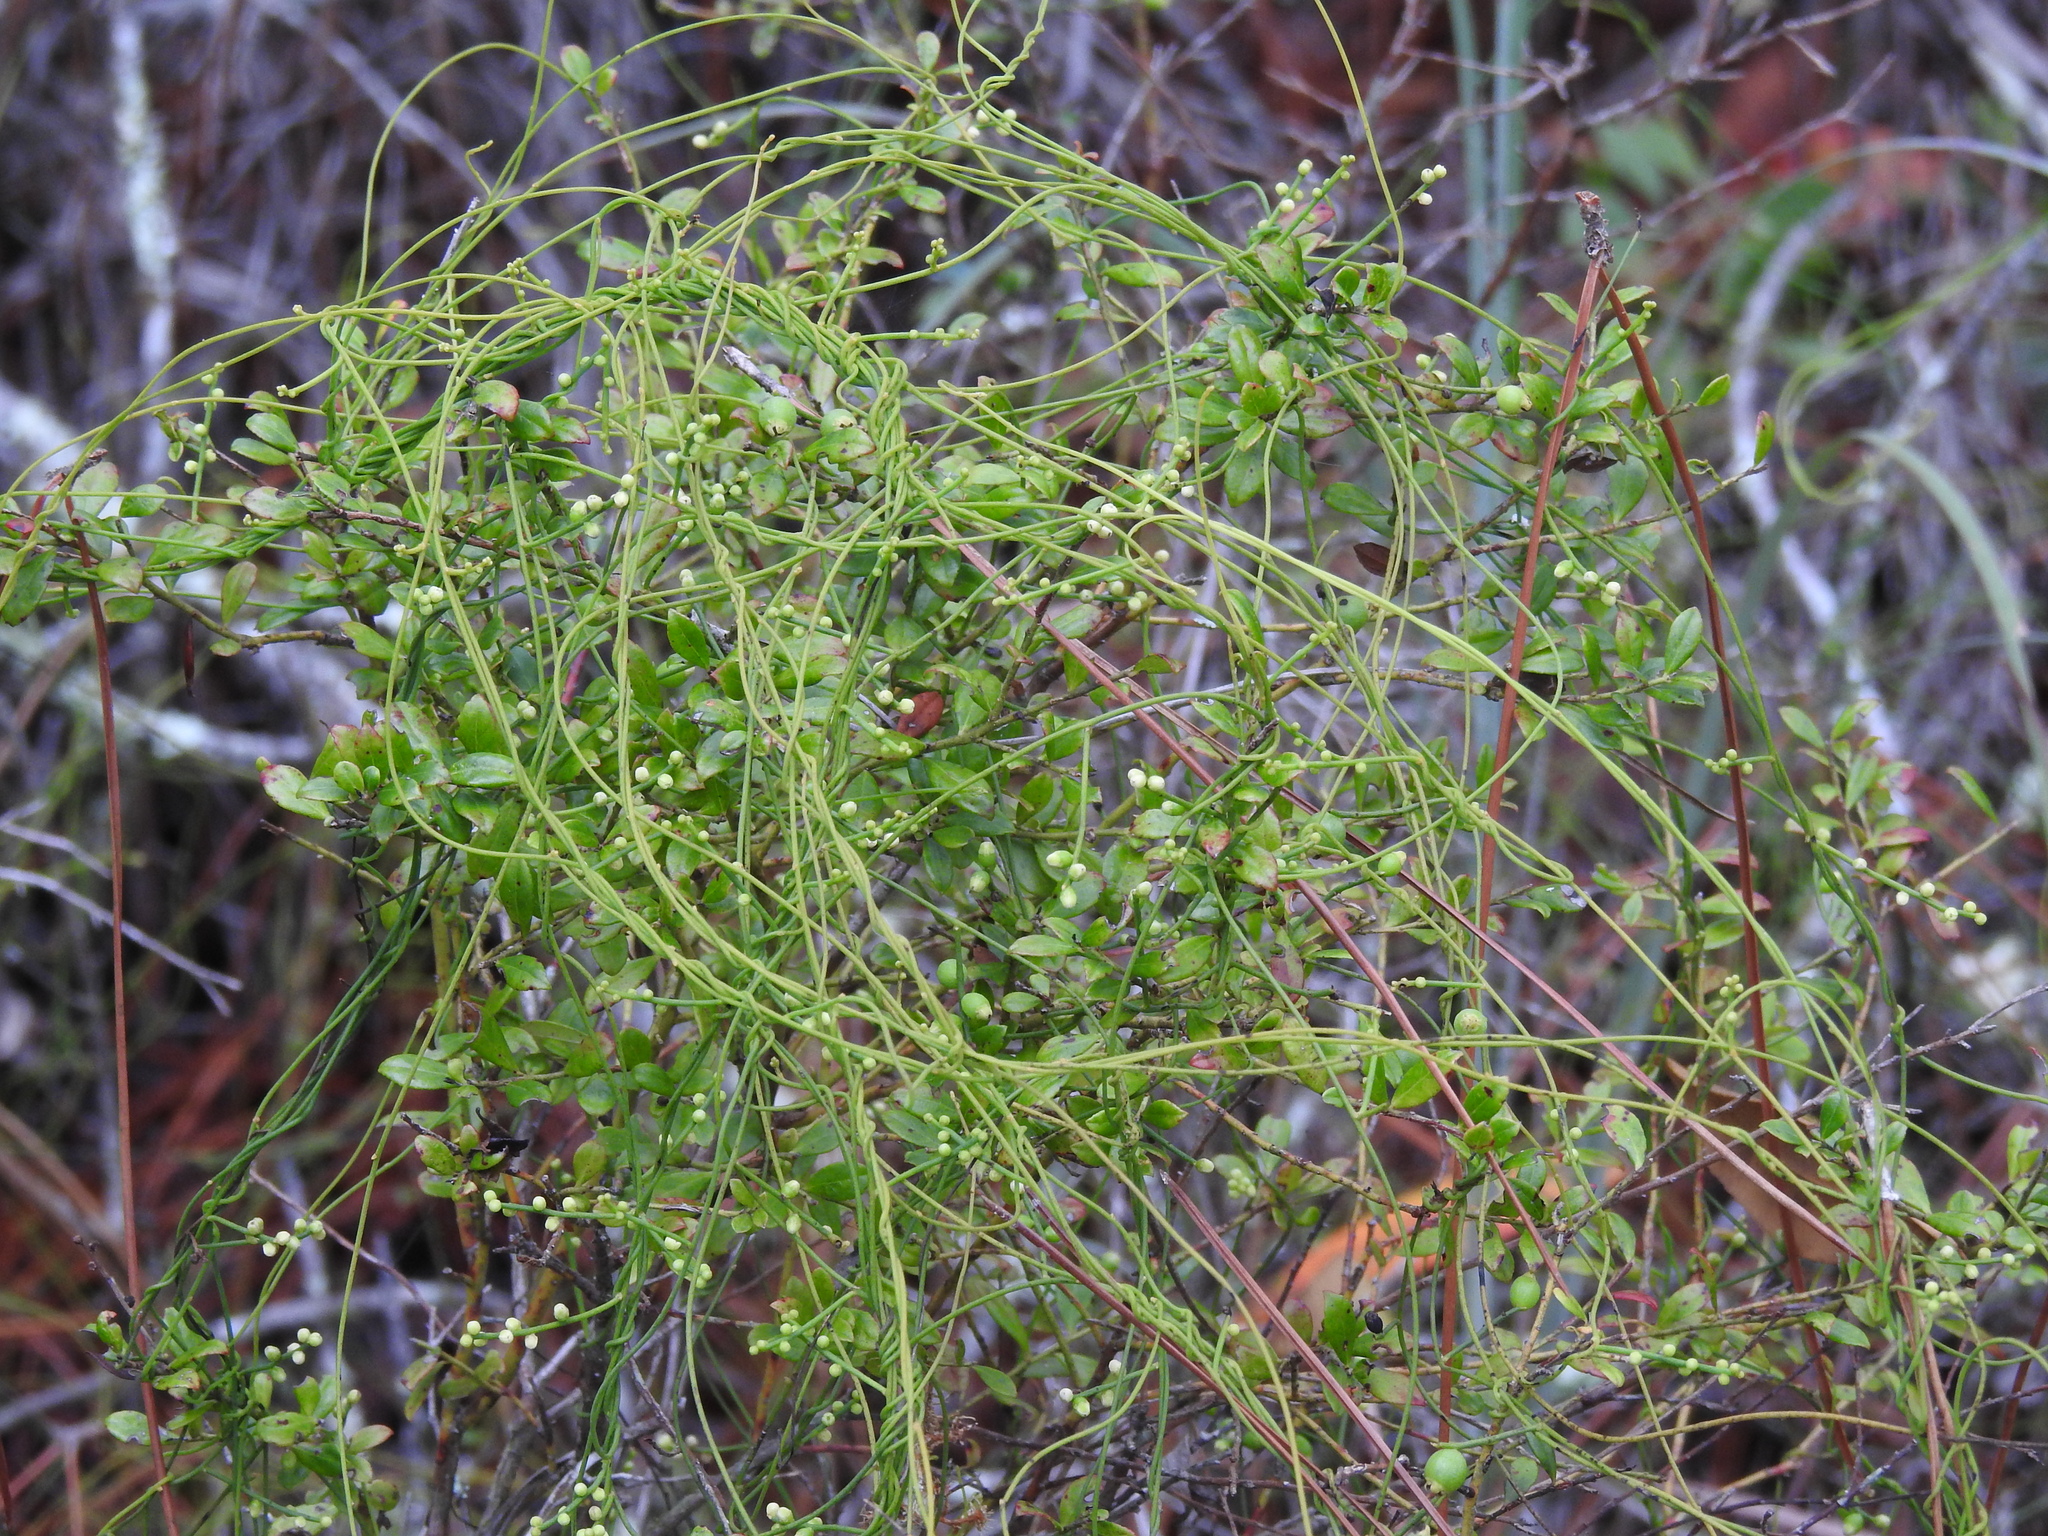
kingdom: Plantae
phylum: Tracheophyta
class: Magnoliopsida
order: Laurales
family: Lauraceae
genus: Cassytha
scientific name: Cassytha filiformis
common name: Dodder-laurel
